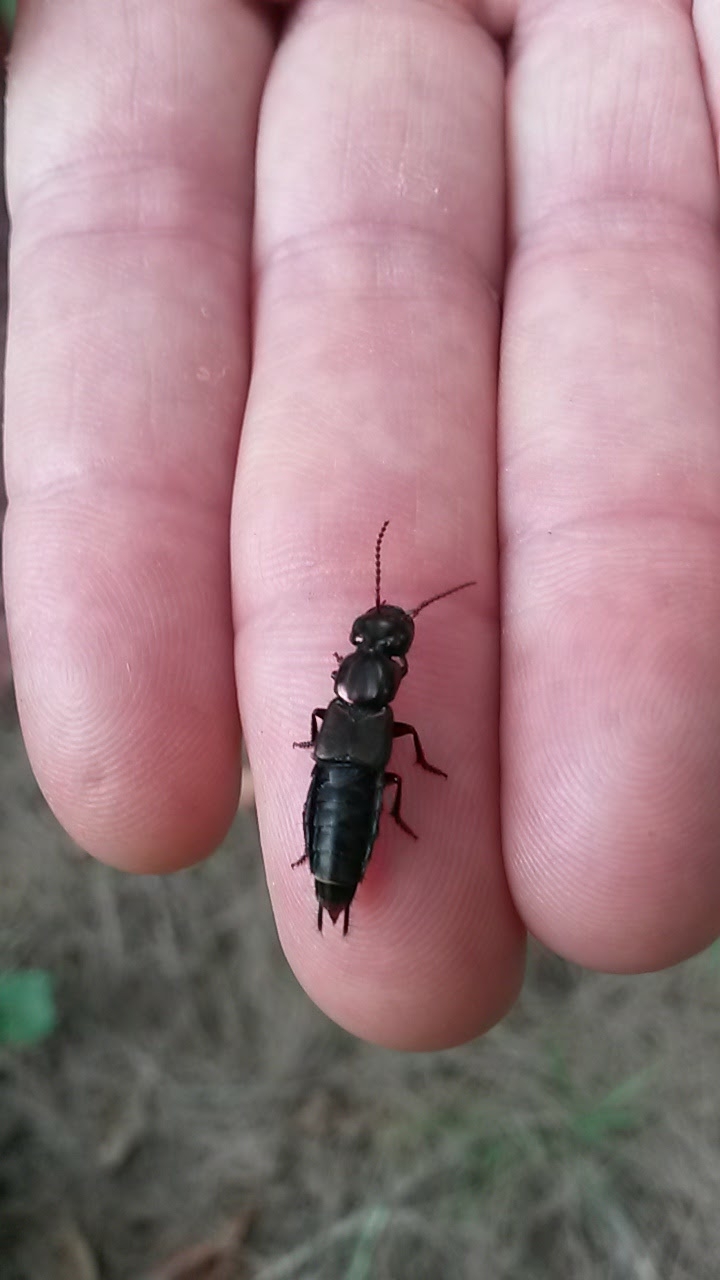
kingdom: Animalia
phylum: Arthropoda
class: Insecta
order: Coleoptera
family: Staphylinidae
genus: Antimerus
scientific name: Antimerus punctipennis
